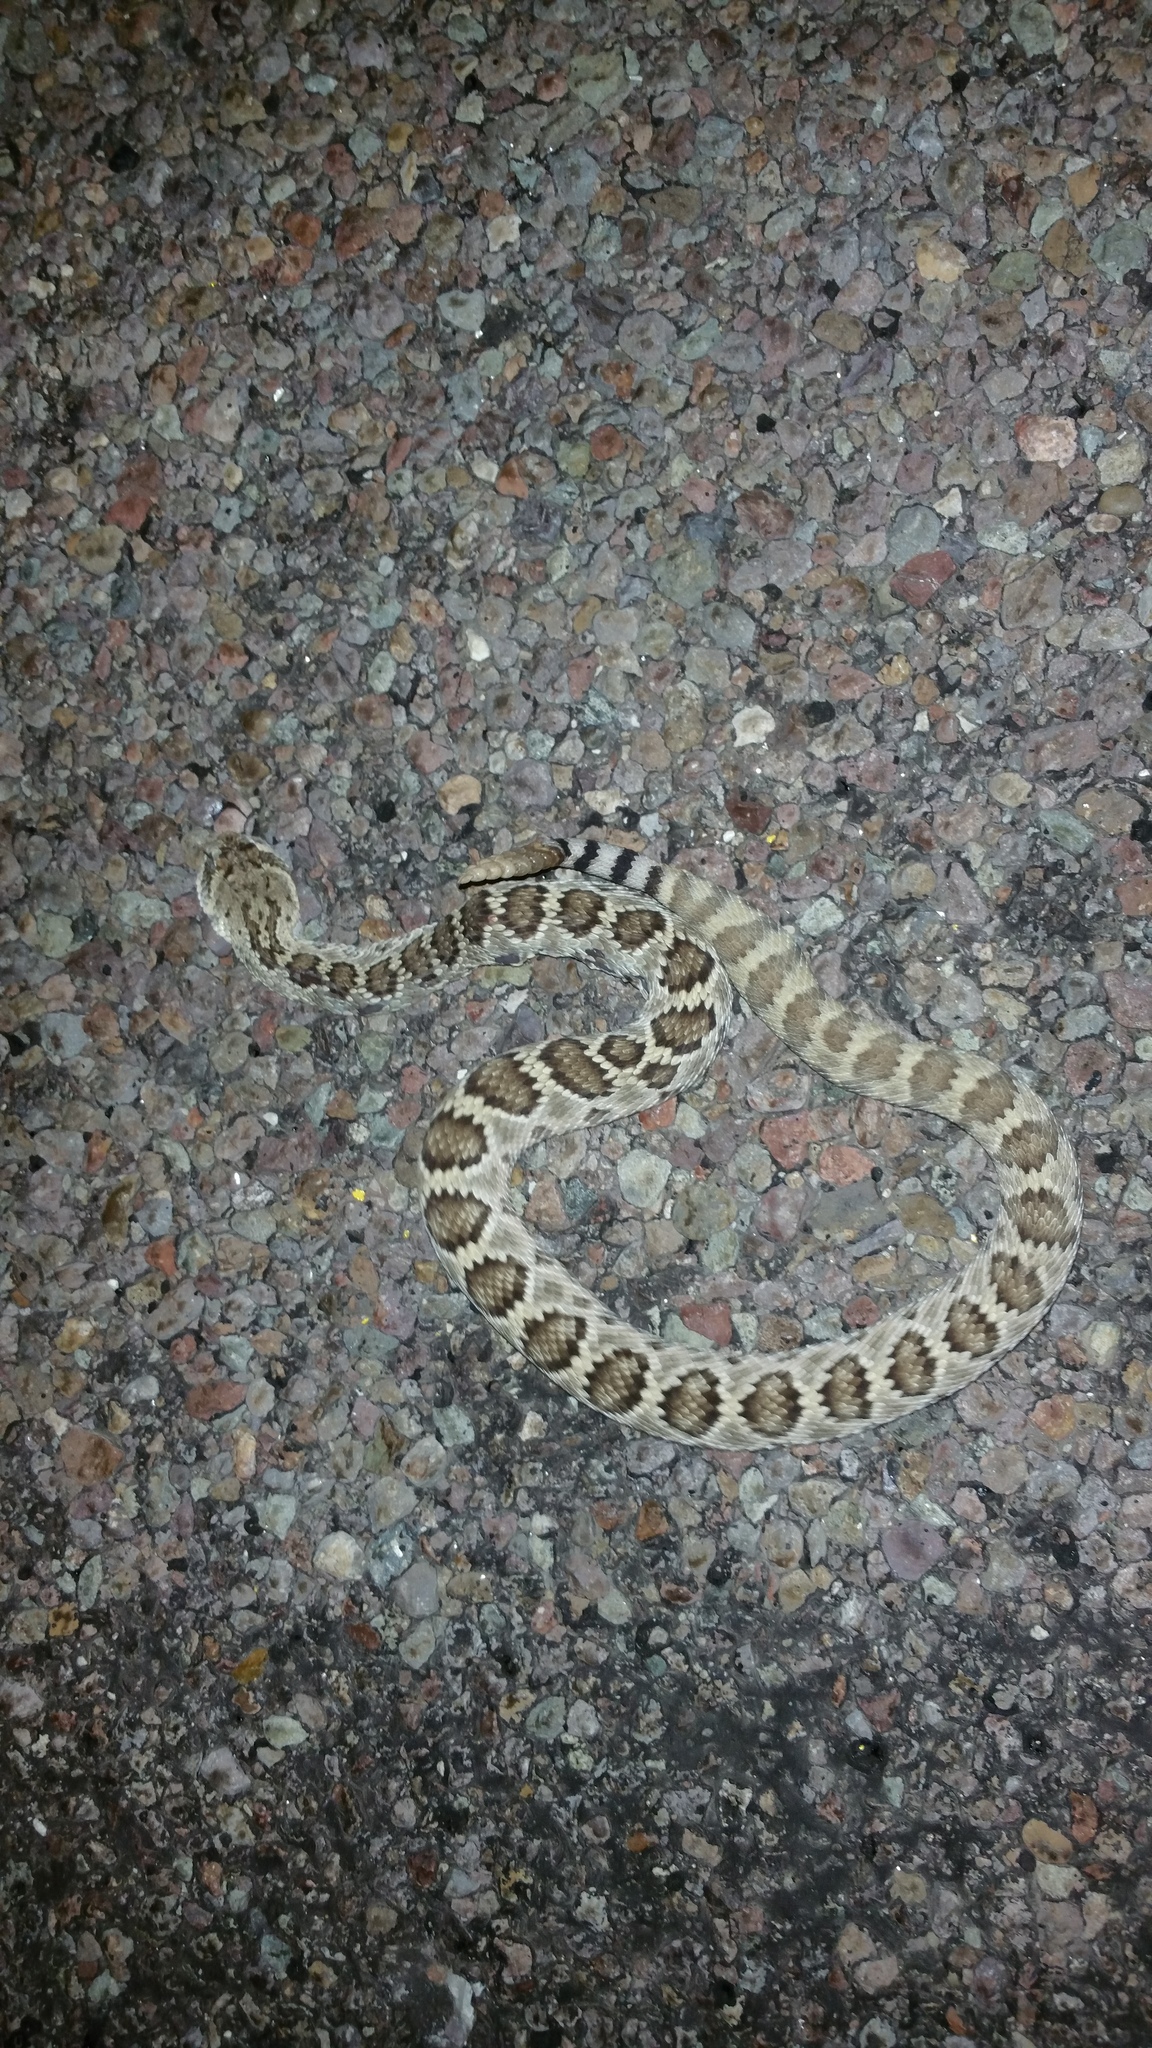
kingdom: Animalia
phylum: Chordata
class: Squamata
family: Viperidae
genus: Crotalus
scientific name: Crotalus scutulatus
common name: Scutulatus
